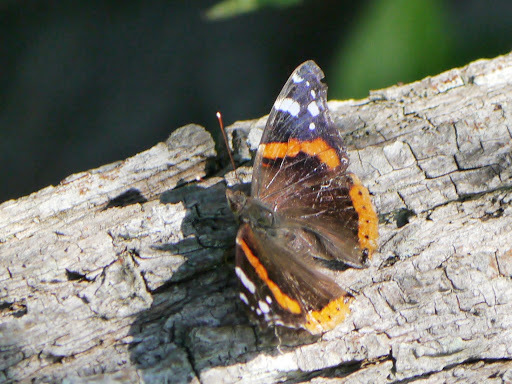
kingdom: Animalia
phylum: Arthropoda
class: Insecta
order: Lepidoptera
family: Nymphalidae
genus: Vanessa
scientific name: Vanessa atalanta
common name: Red admiral
